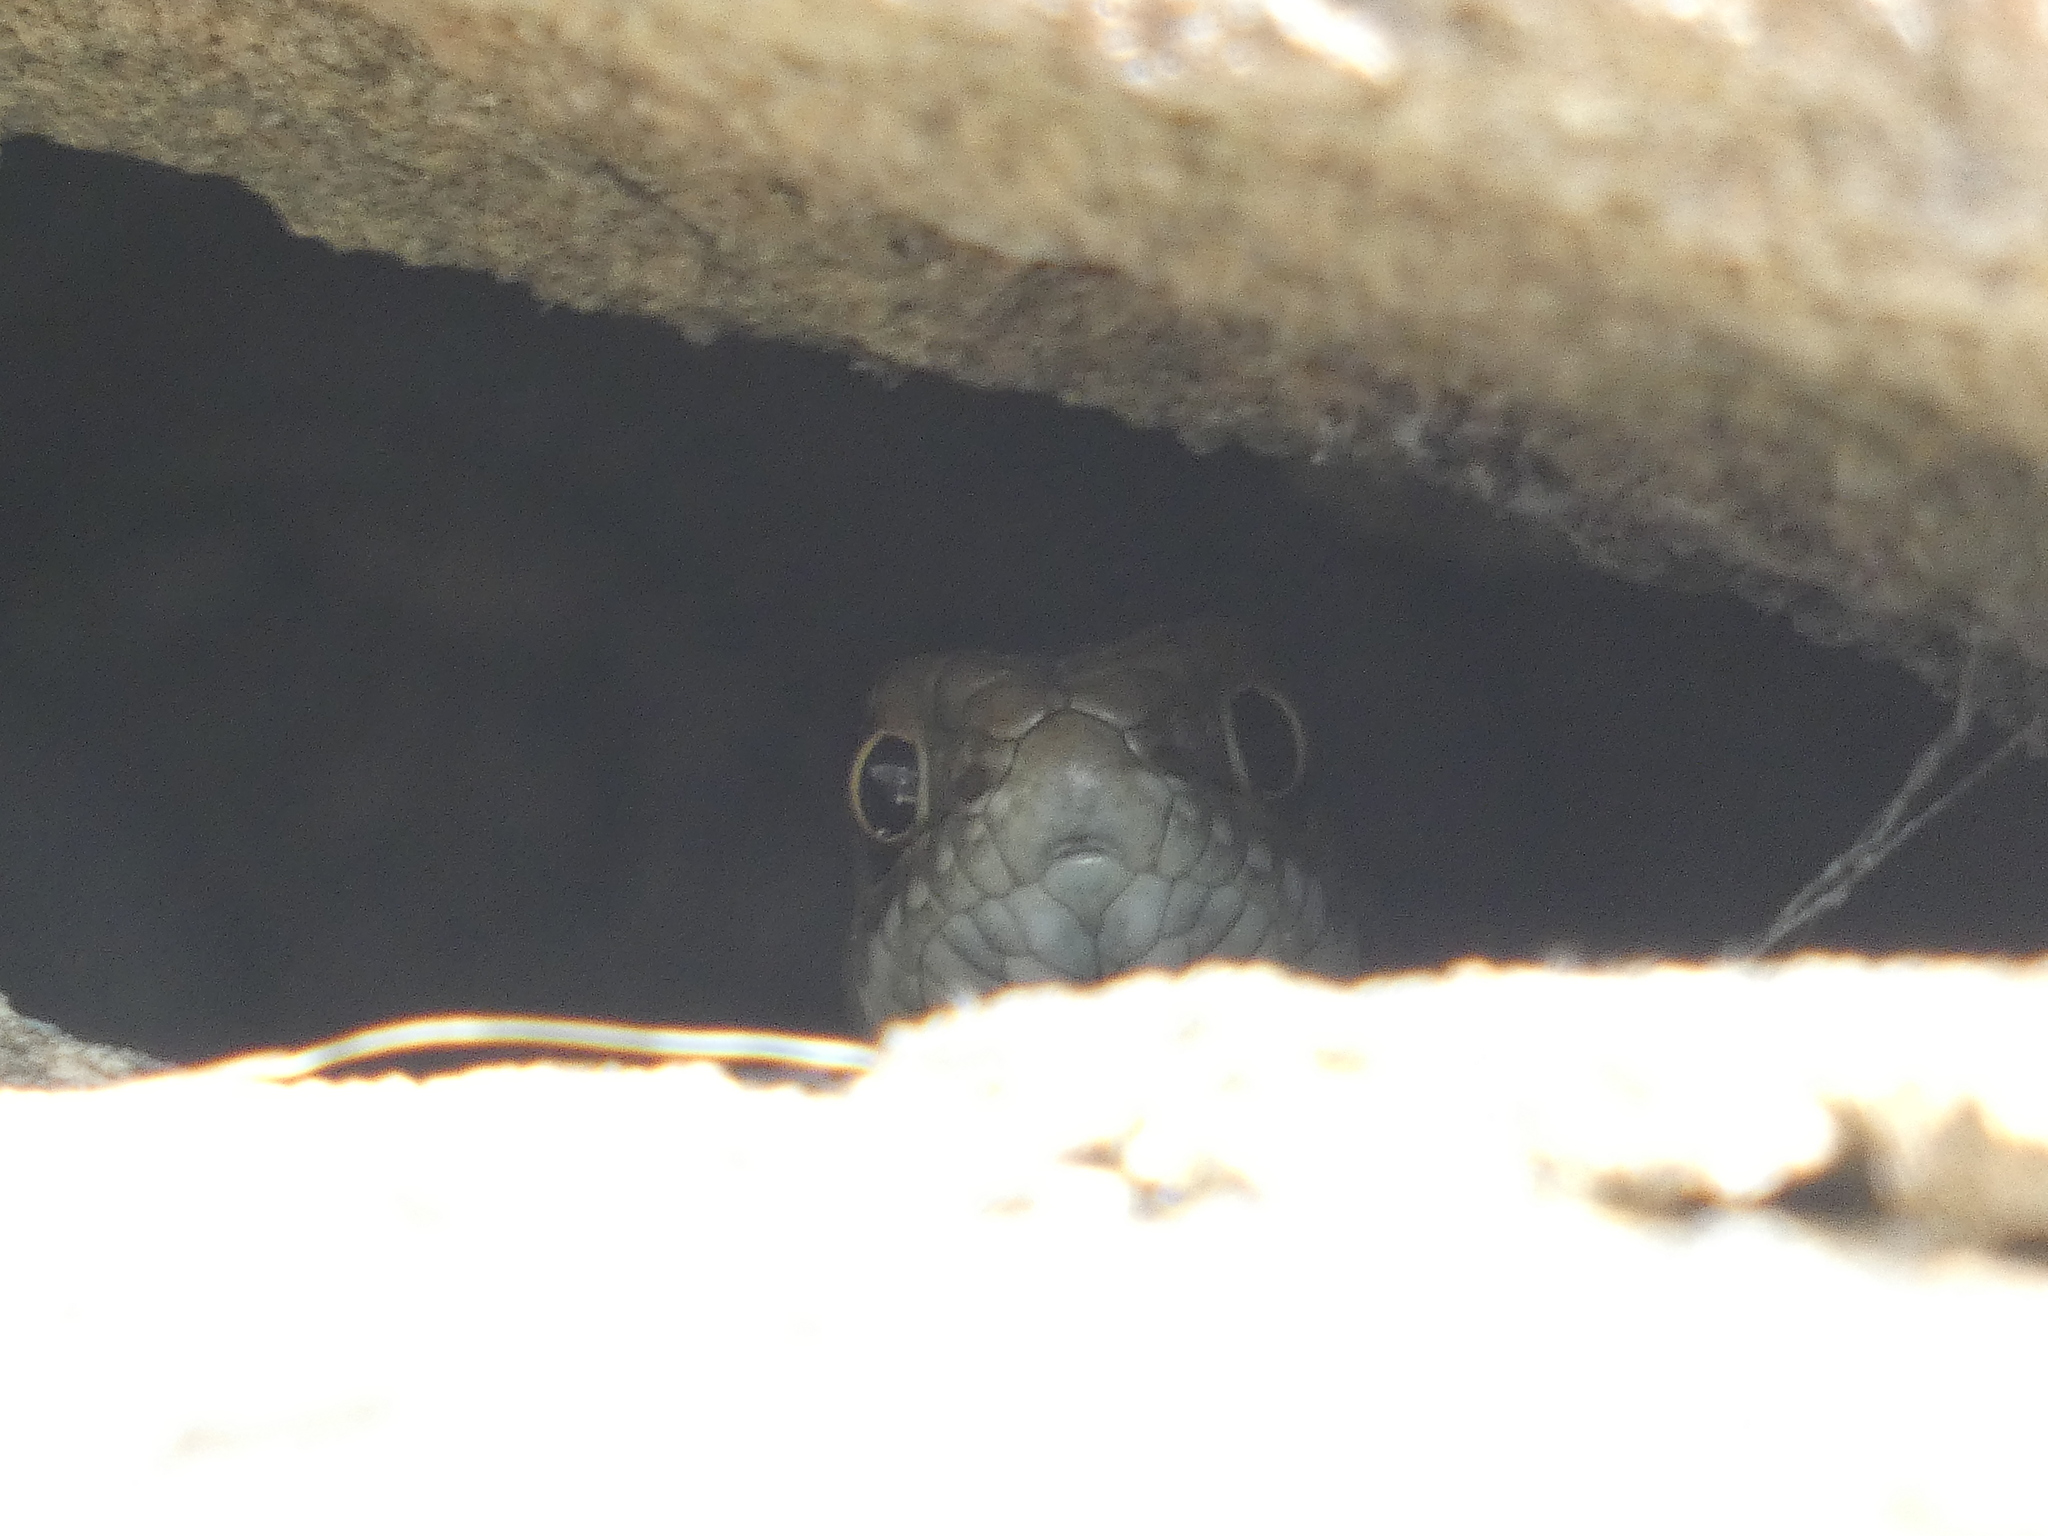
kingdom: Animalia
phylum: Chordata
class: Squamata
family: Psammophiidae
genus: Malpolon
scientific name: Malpolon monspessulanus
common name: Montpellier snake
